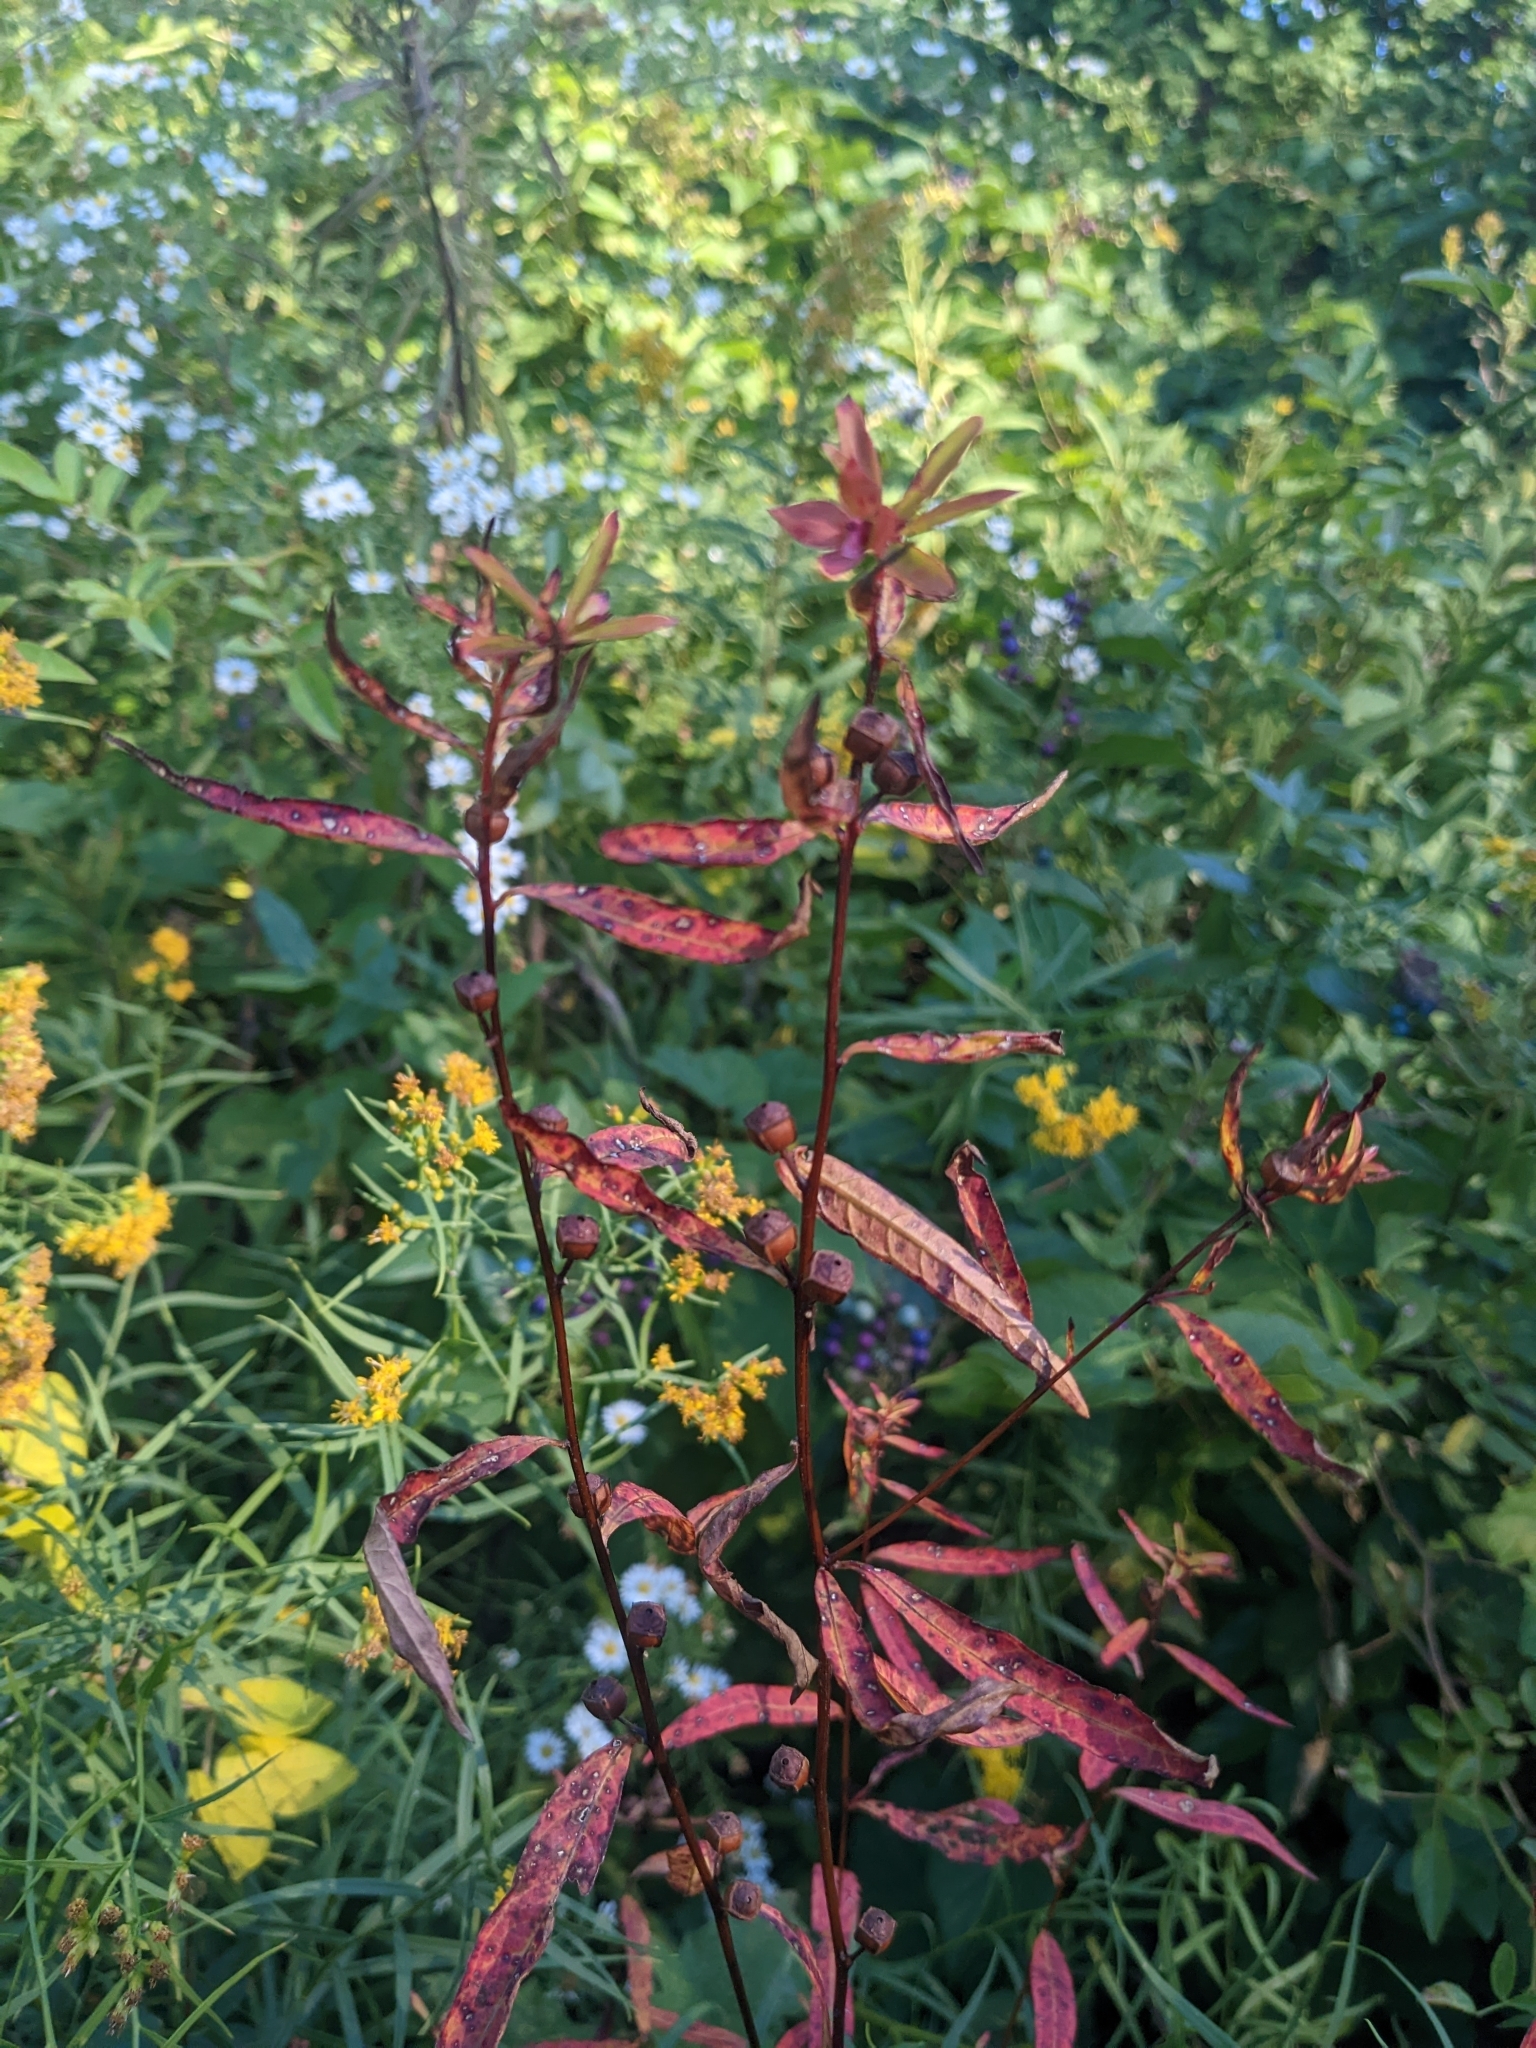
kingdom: Plantae
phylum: Tracheophyta
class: Magnoliopsida
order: Myrtales
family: Onagraceae
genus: Ludwigia
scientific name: Ludwigia alternifolia
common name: Rattlebox
